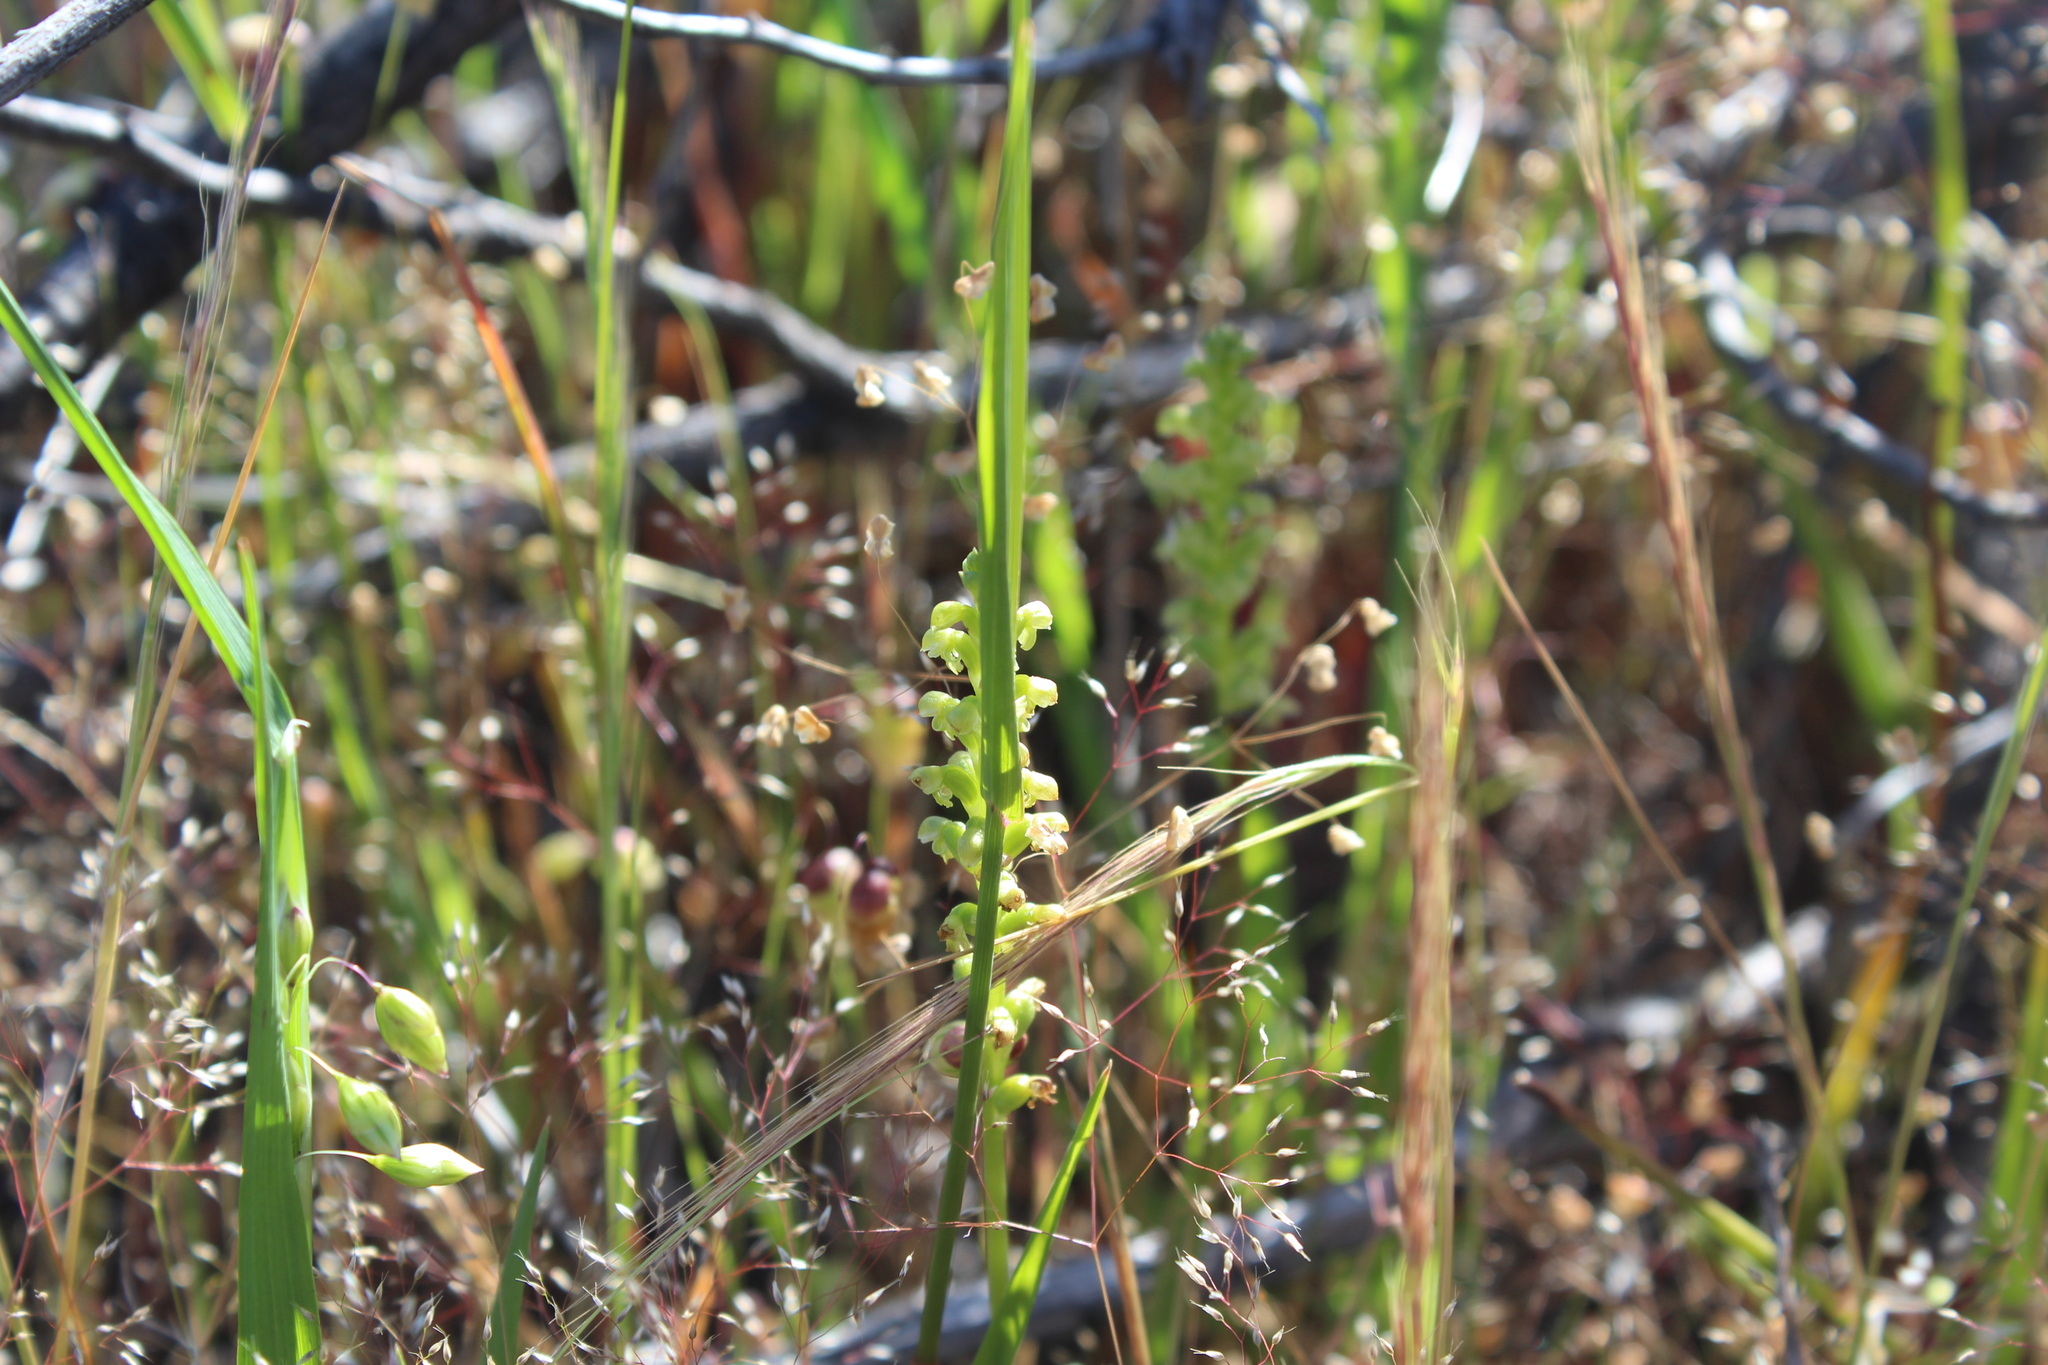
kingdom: Plantae
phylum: Tracheophyta
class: Liliopsida
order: Asparagales
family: Orchidaceae
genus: Microtis
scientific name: Microtis graniticola
